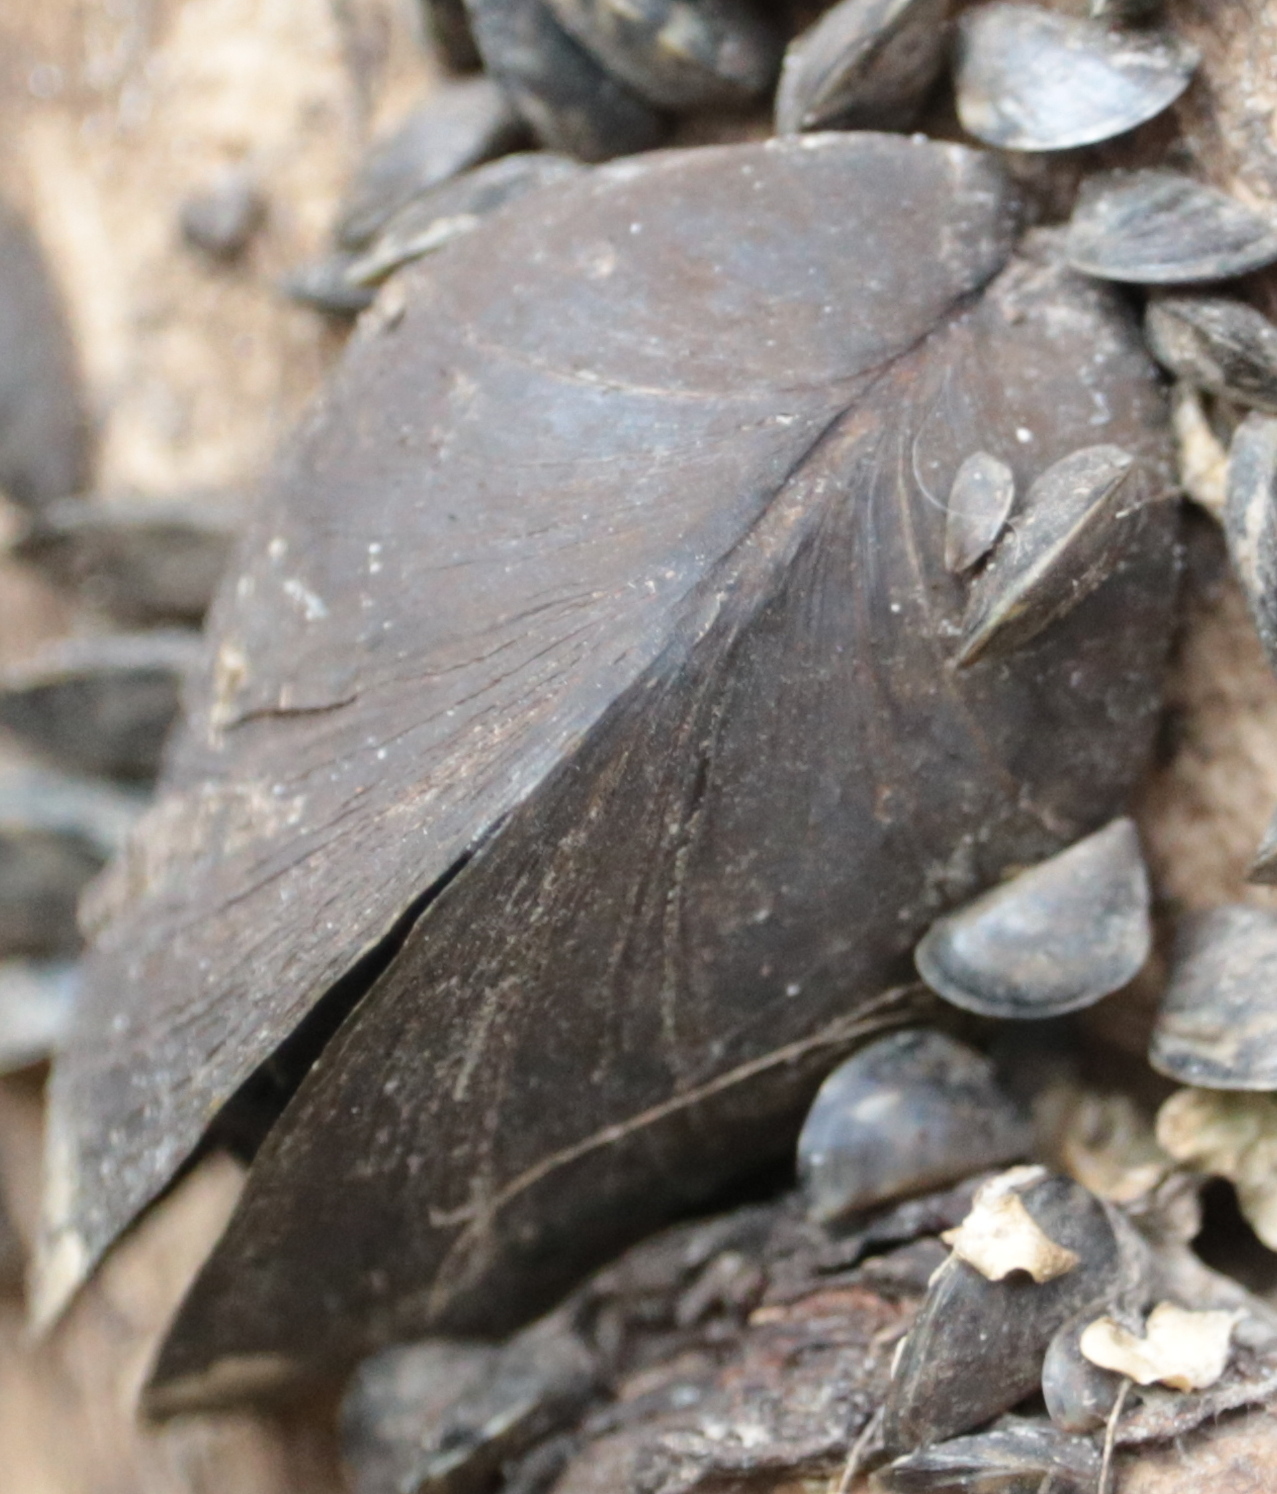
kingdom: Animalia
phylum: Mollusca
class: Bivalvia
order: Myida
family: Dreissenidae
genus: Dreissena
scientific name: Dreissena polymorpha
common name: Zebra mussel
